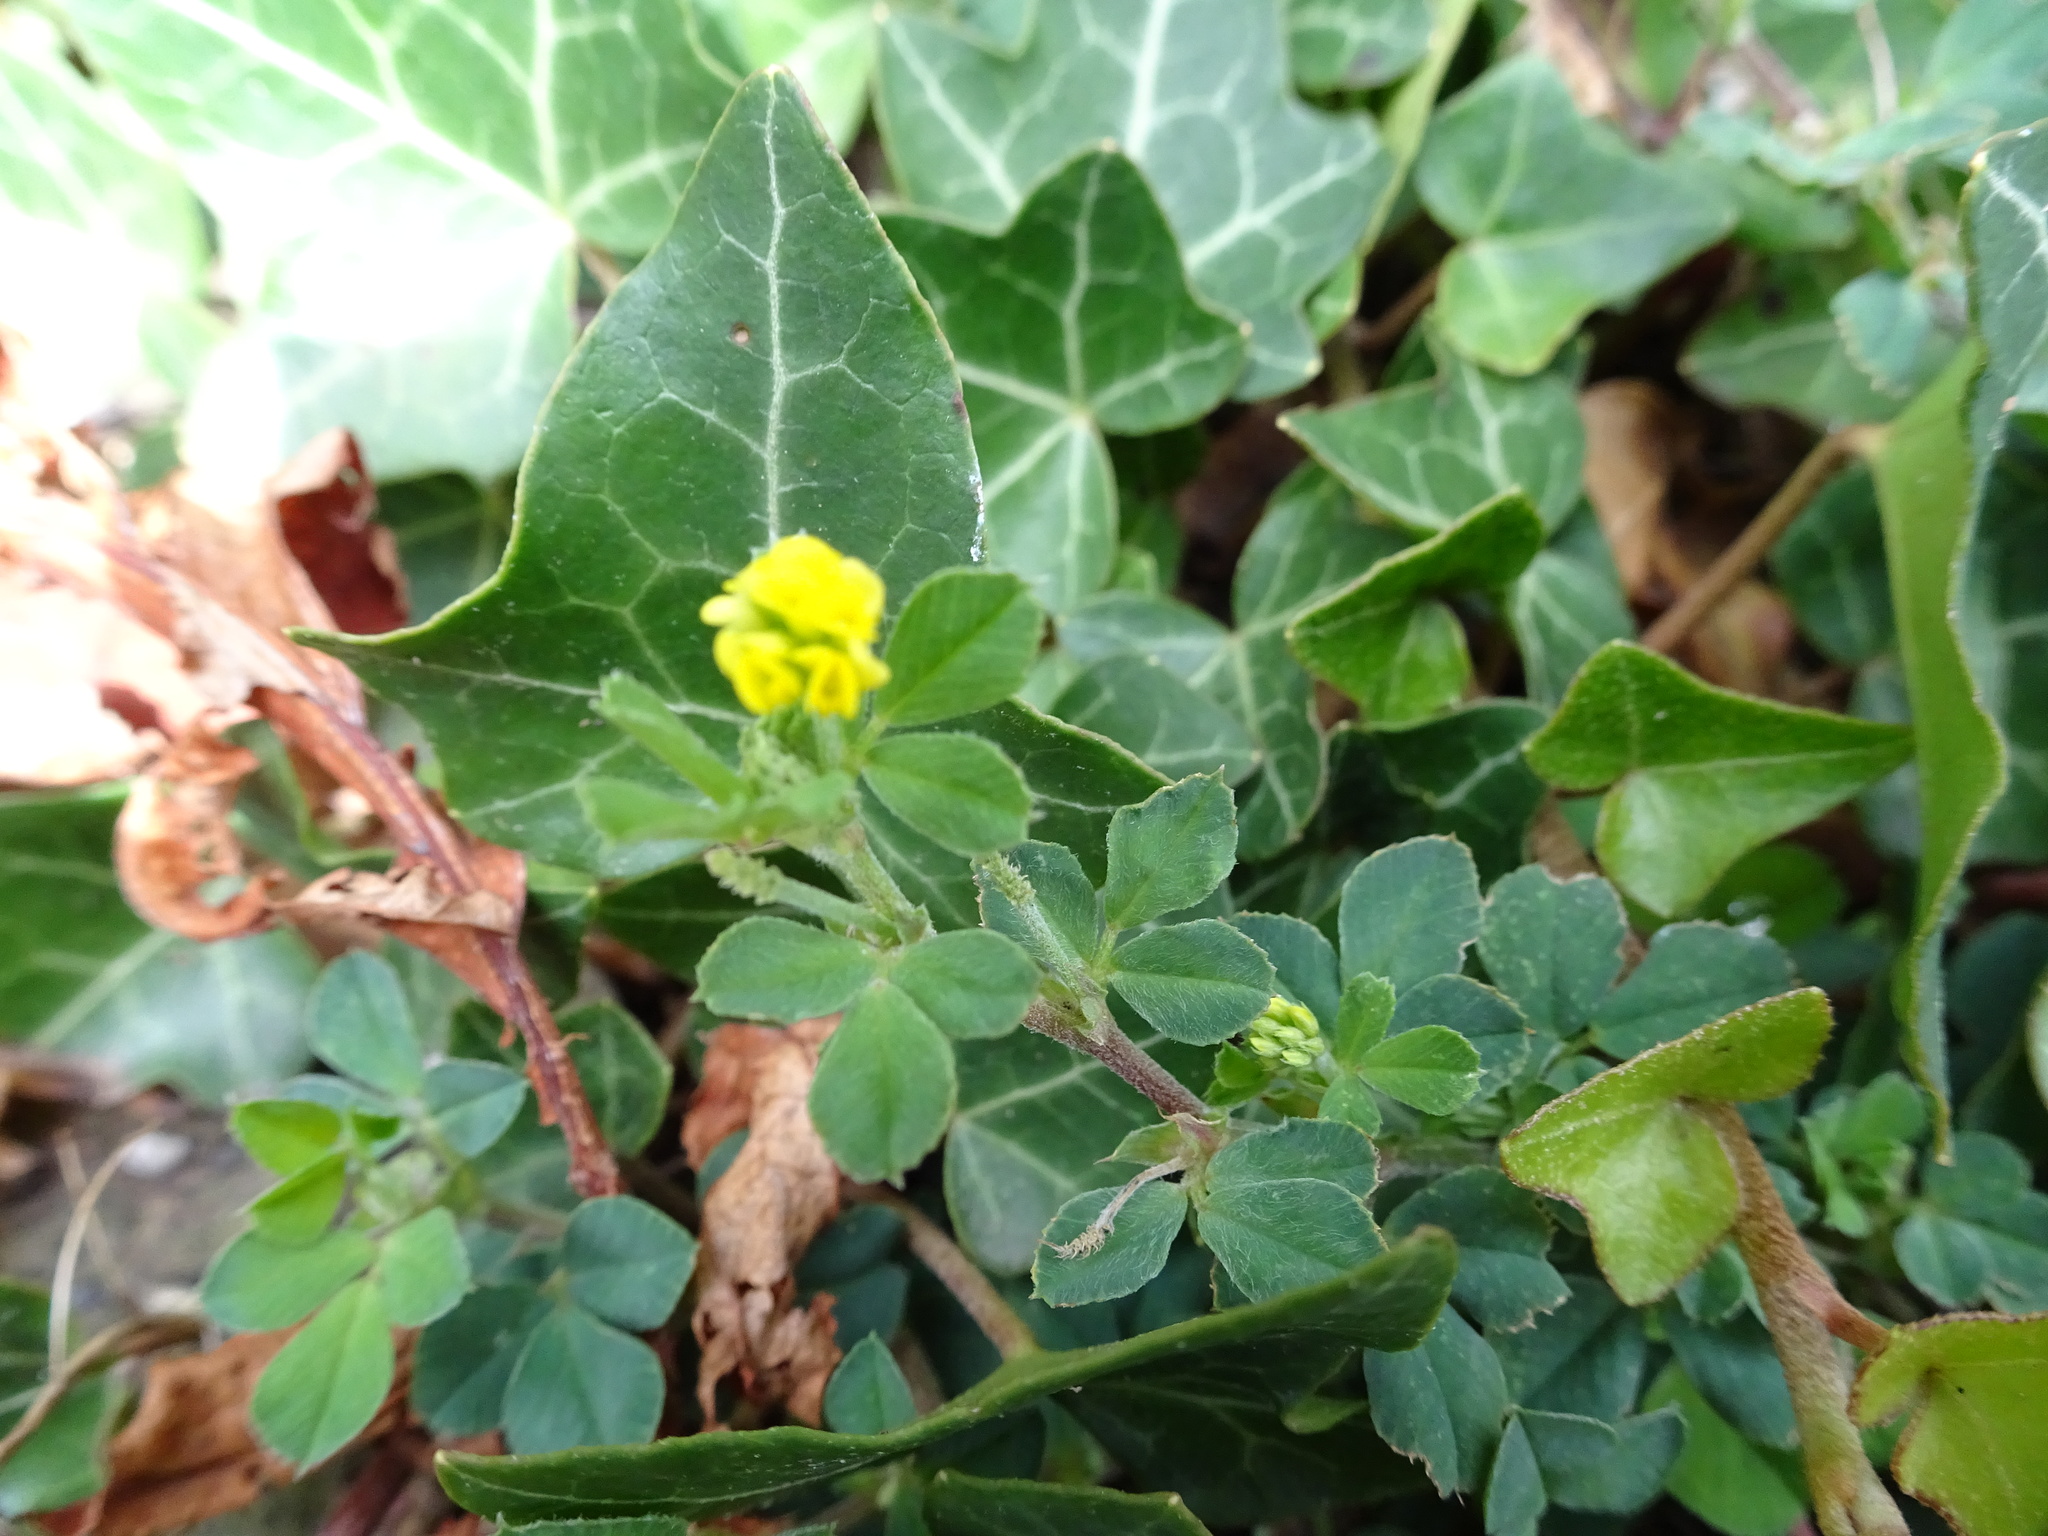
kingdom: Plantae
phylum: Tracheophyta
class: Magnoliopsida
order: Fabales
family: Fabaceae
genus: Medicago
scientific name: Medicago lupulina
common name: Black medick
